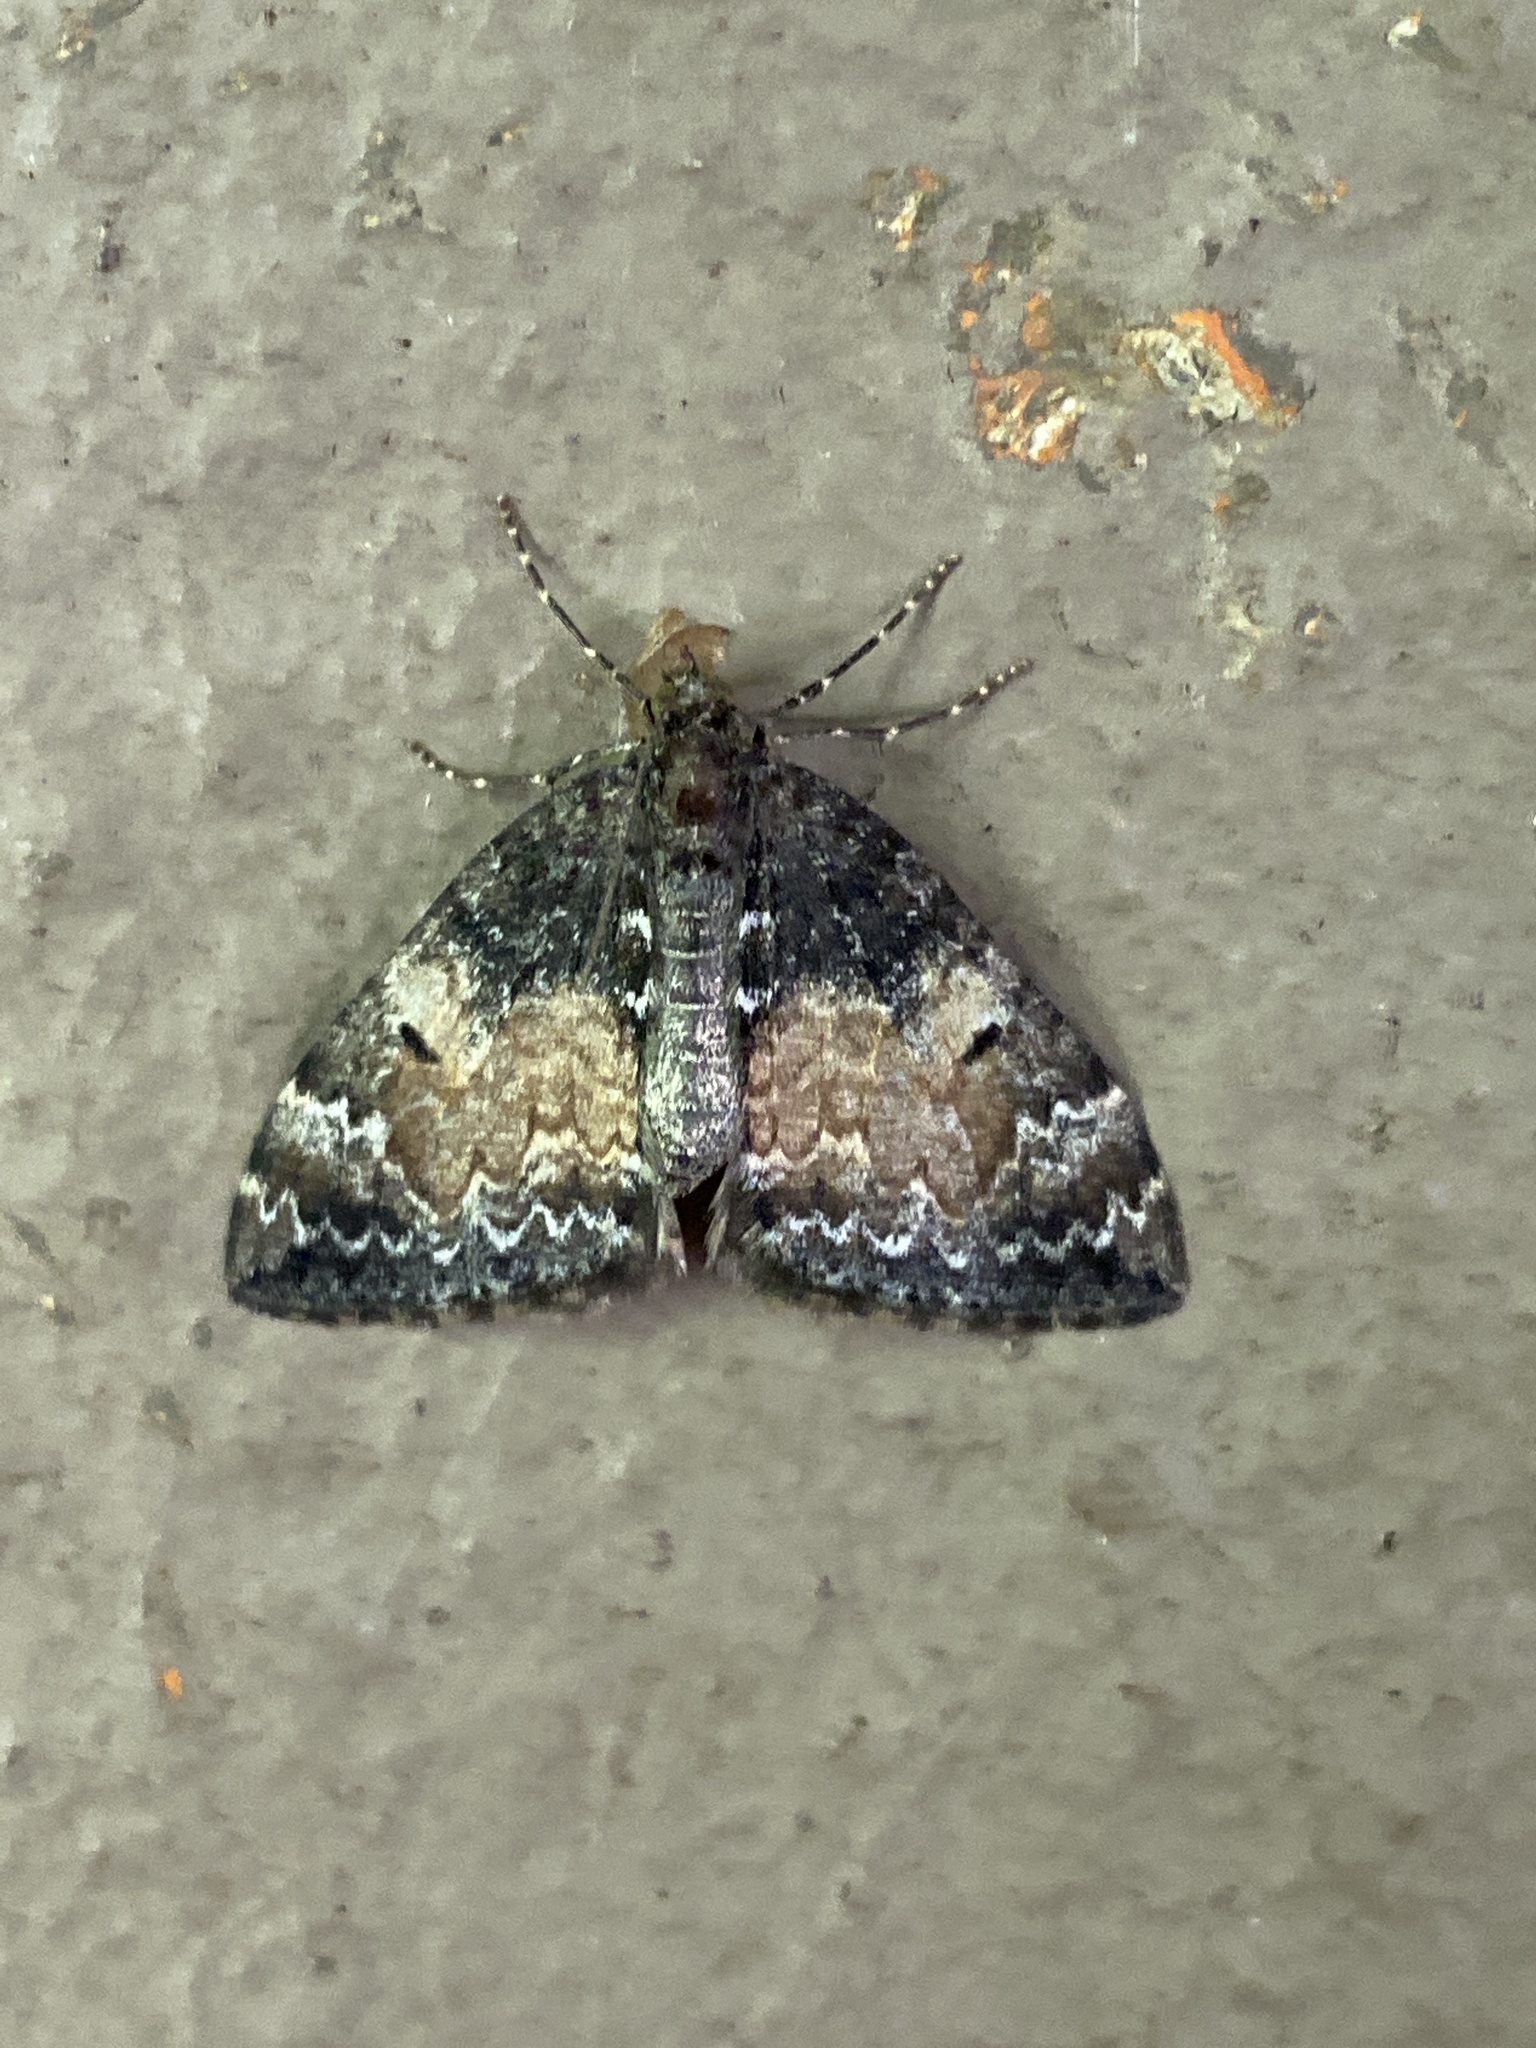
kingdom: Animalia
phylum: Arthropoda
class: Insecta
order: Lepidoptera
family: Geometridae
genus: Dysstroma
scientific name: Dysstroma truncata
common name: Common marbled carpet
